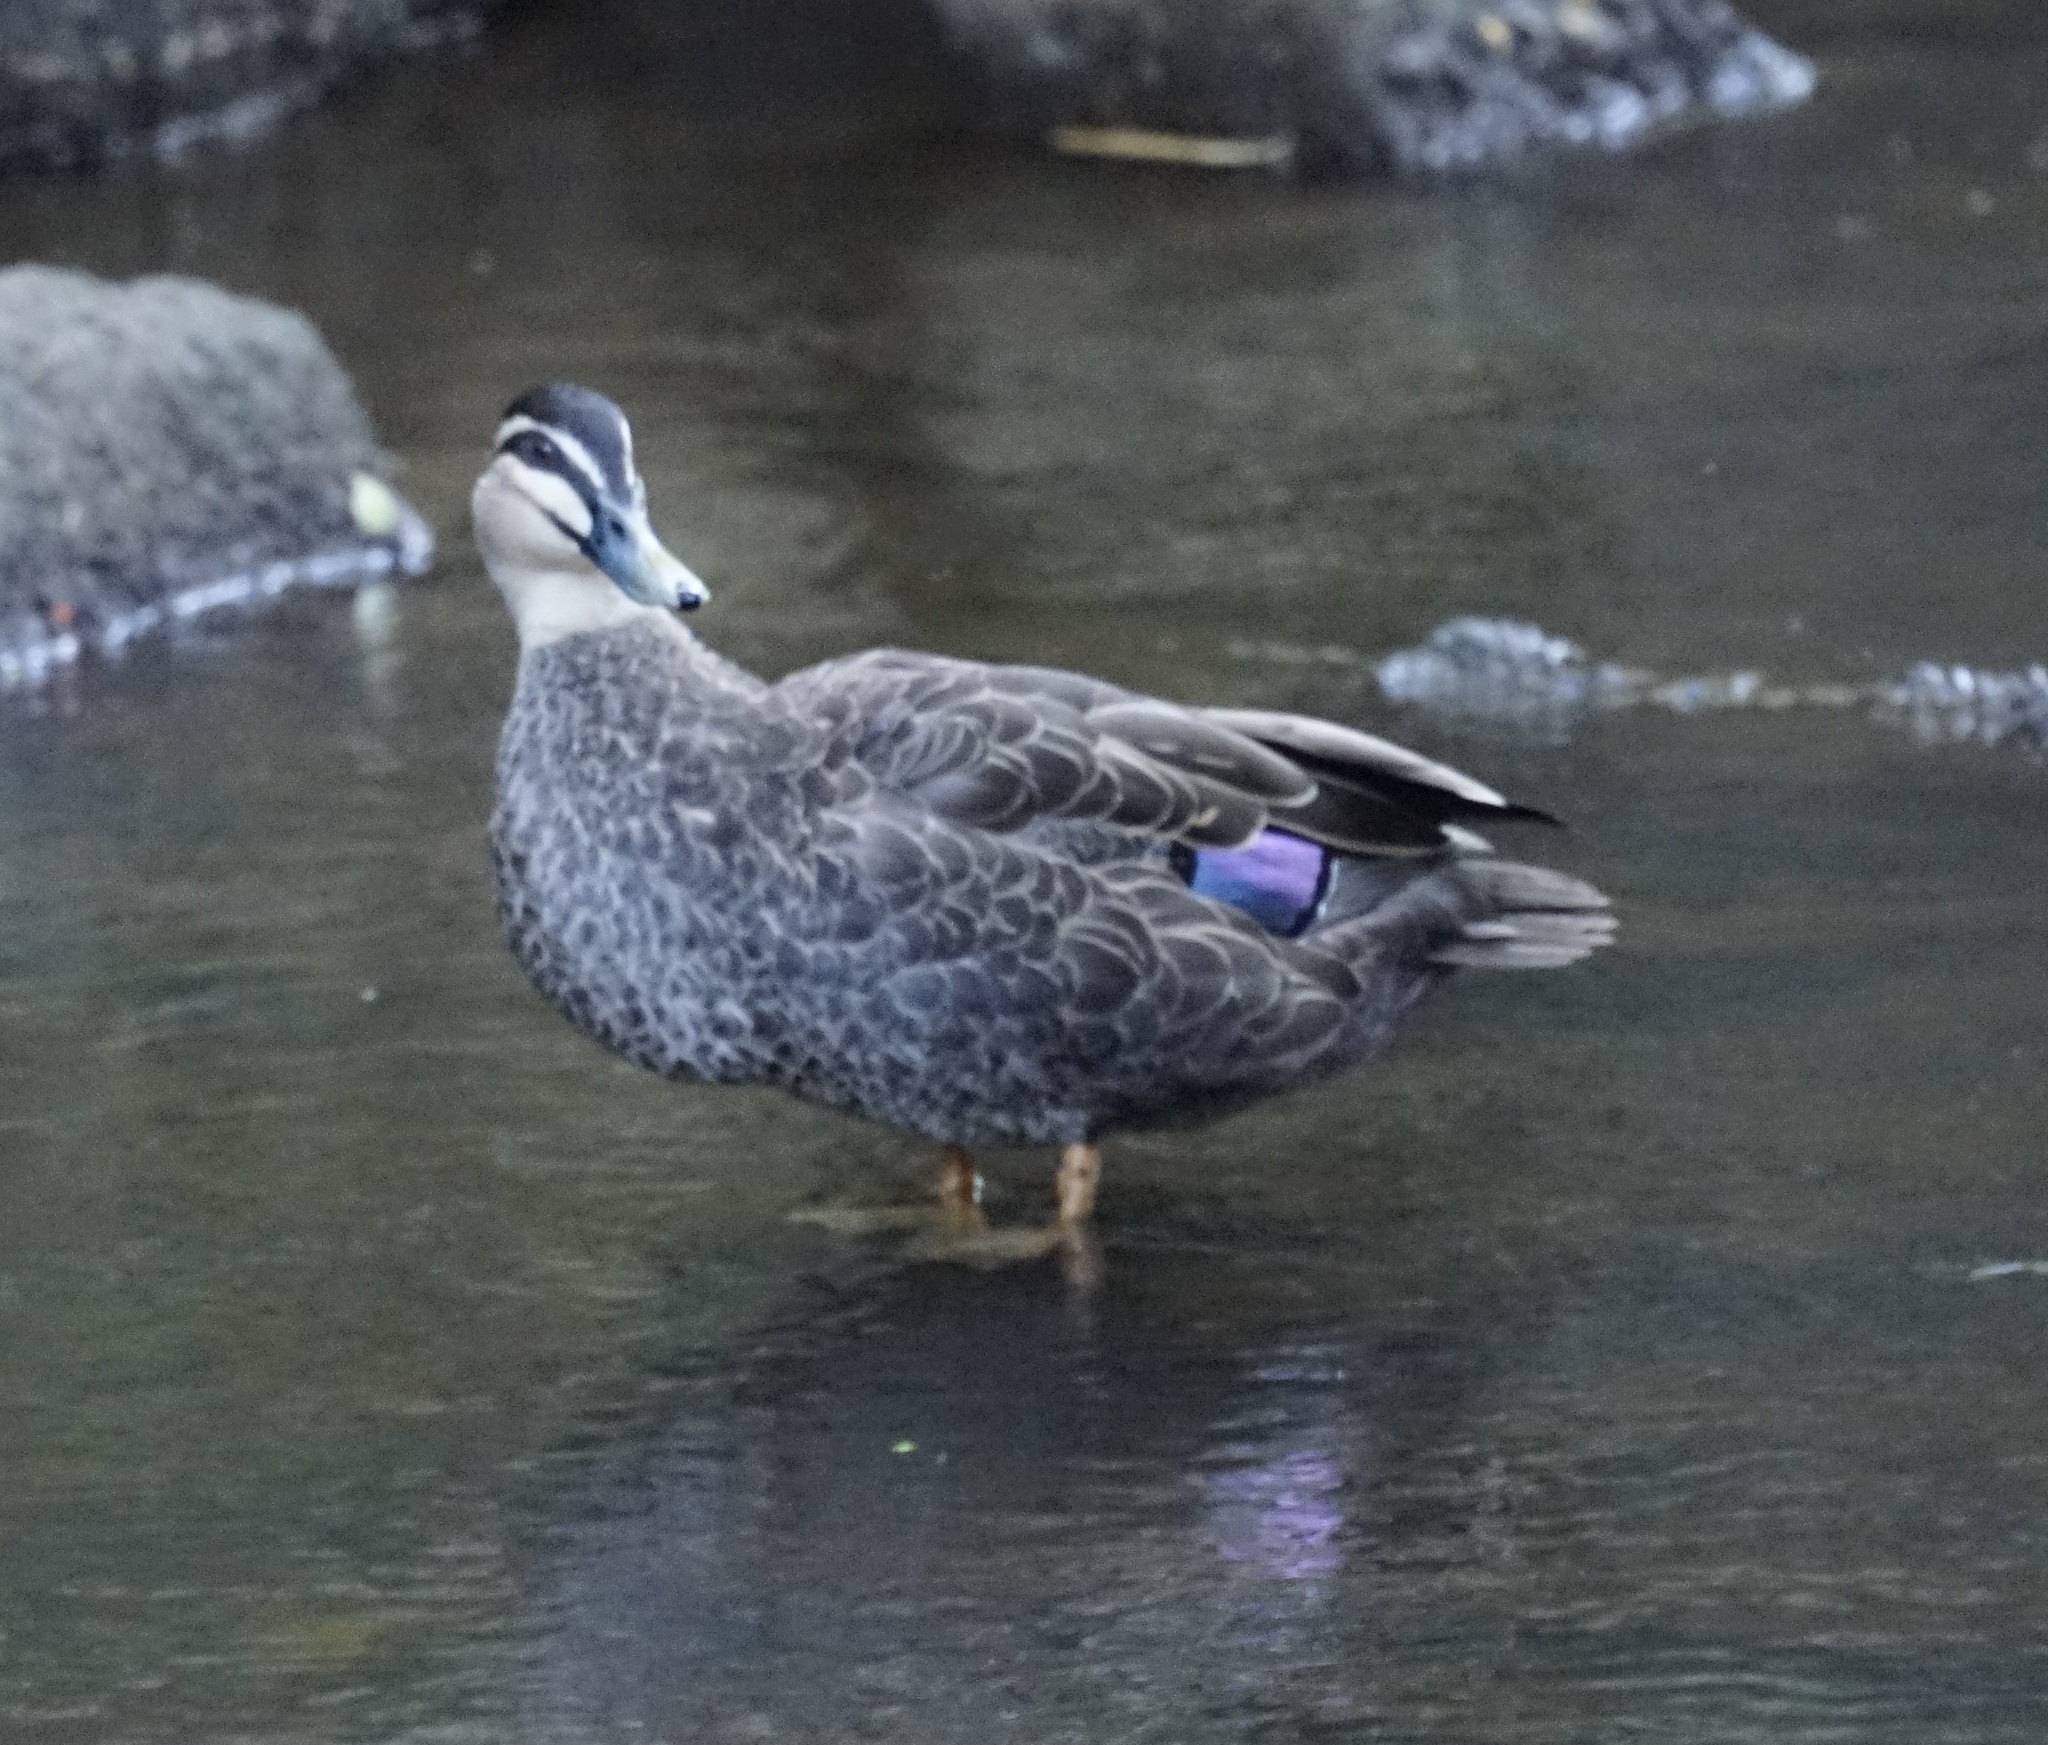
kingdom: Animalia
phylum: Chordata
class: Aves
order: Anseriformes
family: Anatidae
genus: Anas
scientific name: Anas
